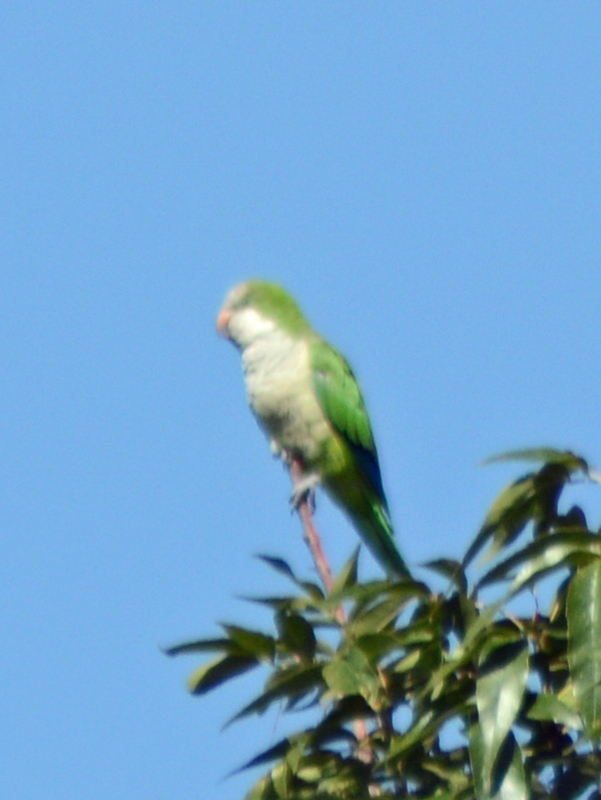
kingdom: Animalia
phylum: Chordata
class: Aves
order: Psittaciformes
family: Psittacidae
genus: Myiopsitta
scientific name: Myiopsitta monachus
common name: Monk parakeet
